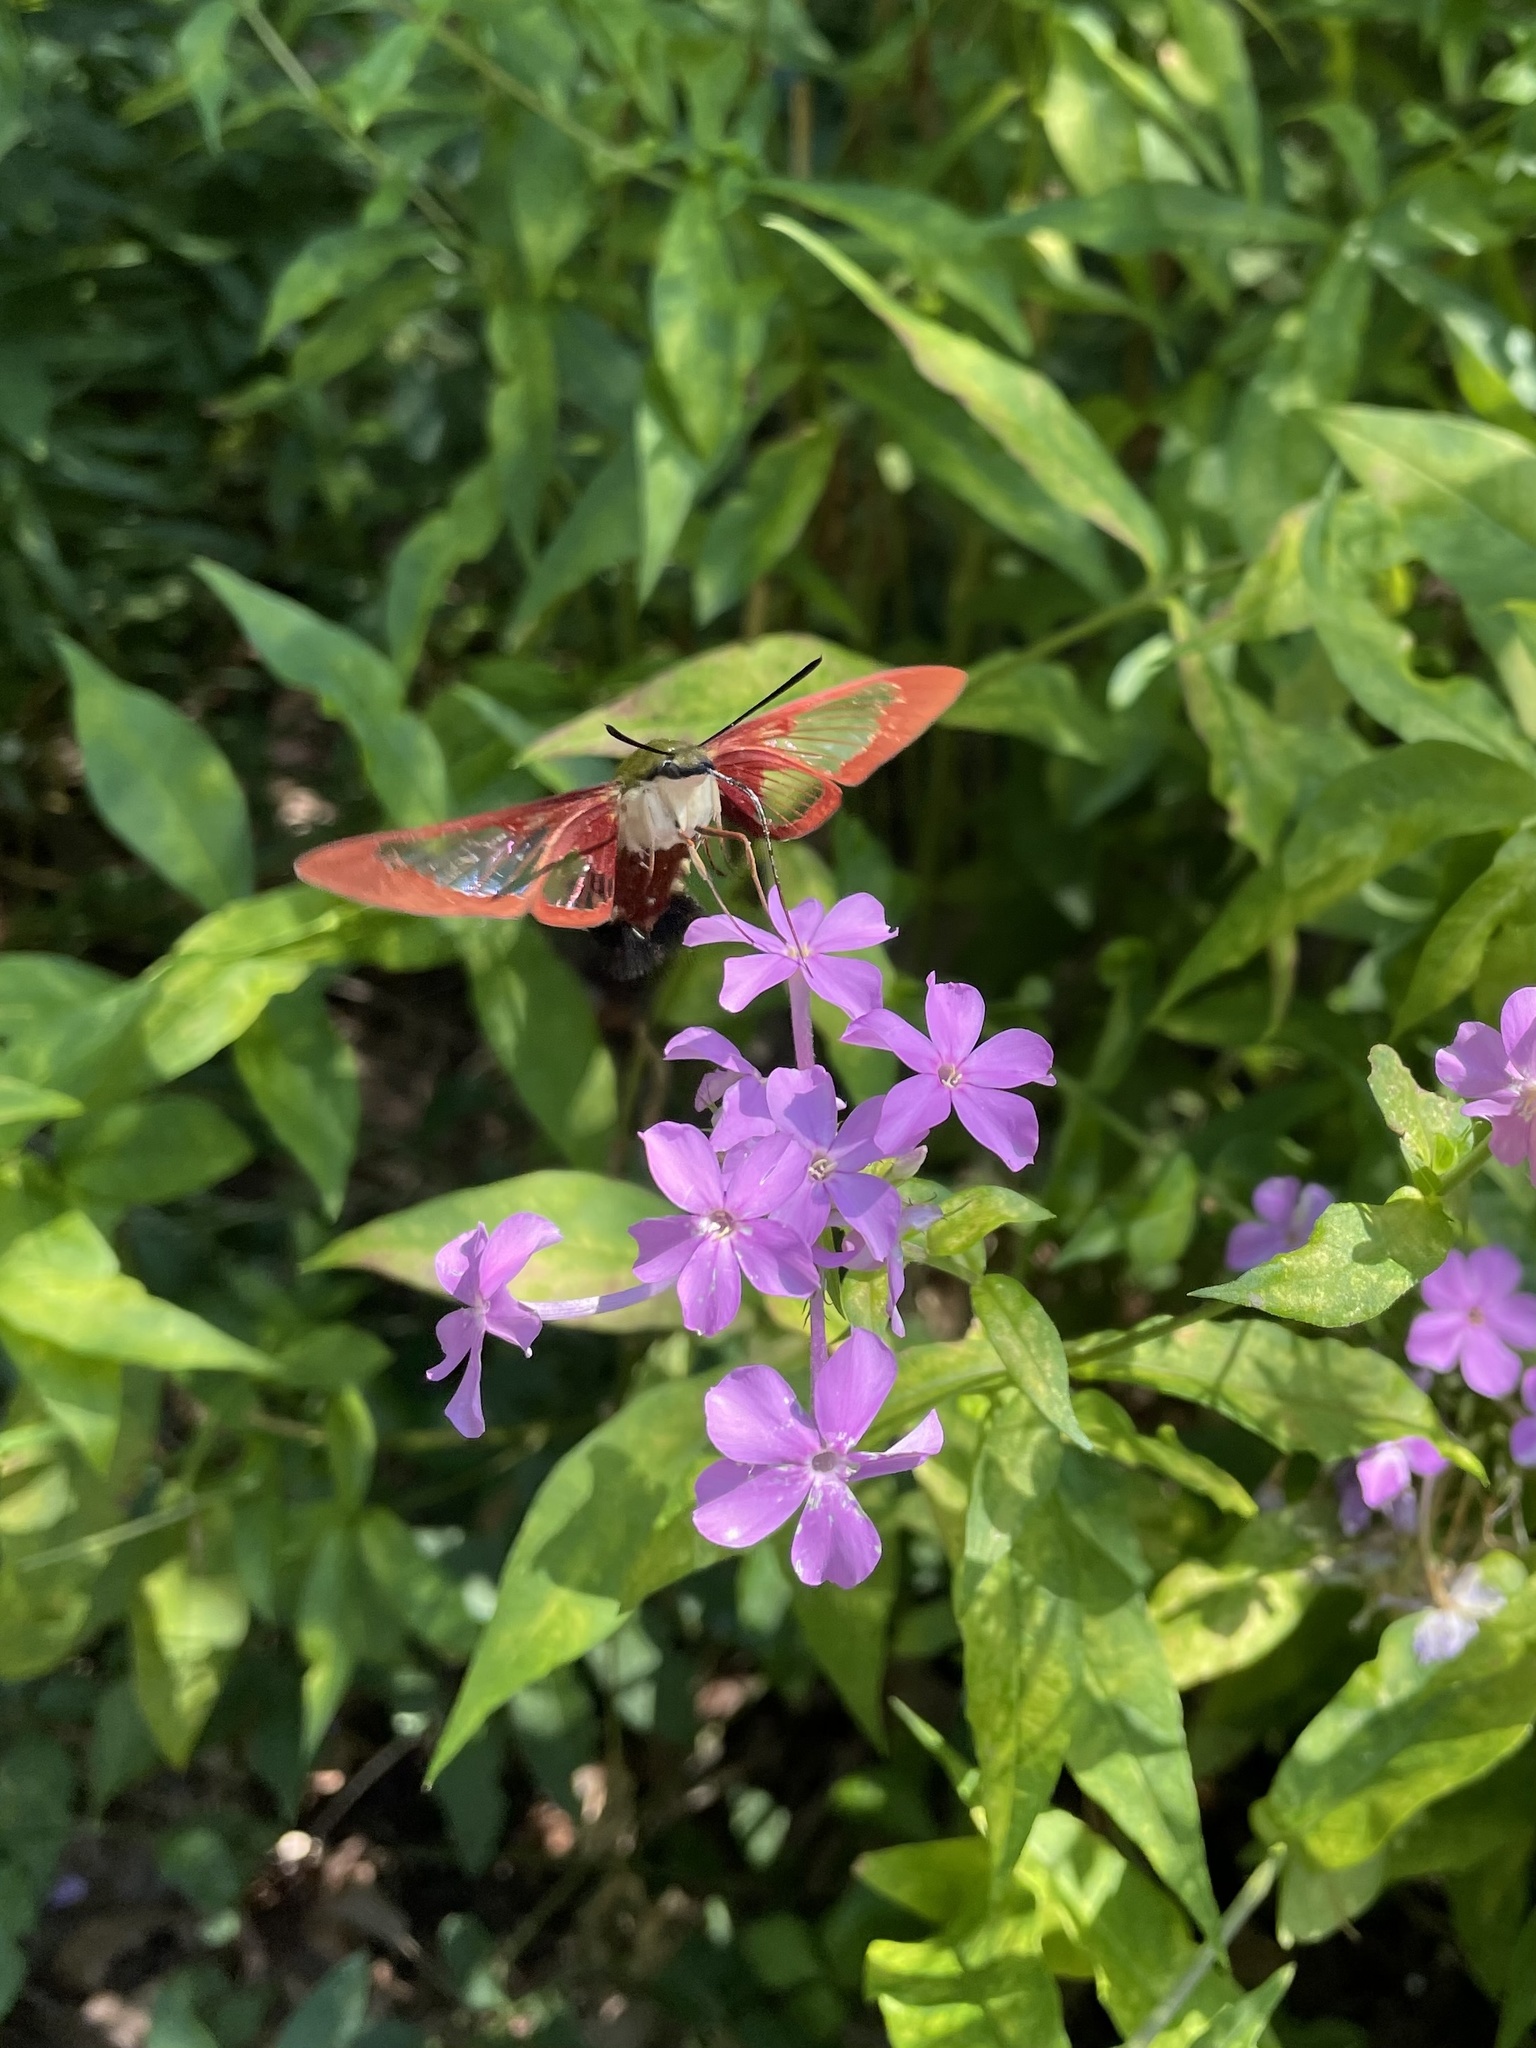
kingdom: Animalia
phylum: Arthropoda
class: Insecta
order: Lepidoptera
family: Sphingidae
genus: Hemaris
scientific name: Hemaris thysbe
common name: Common clear-wing
